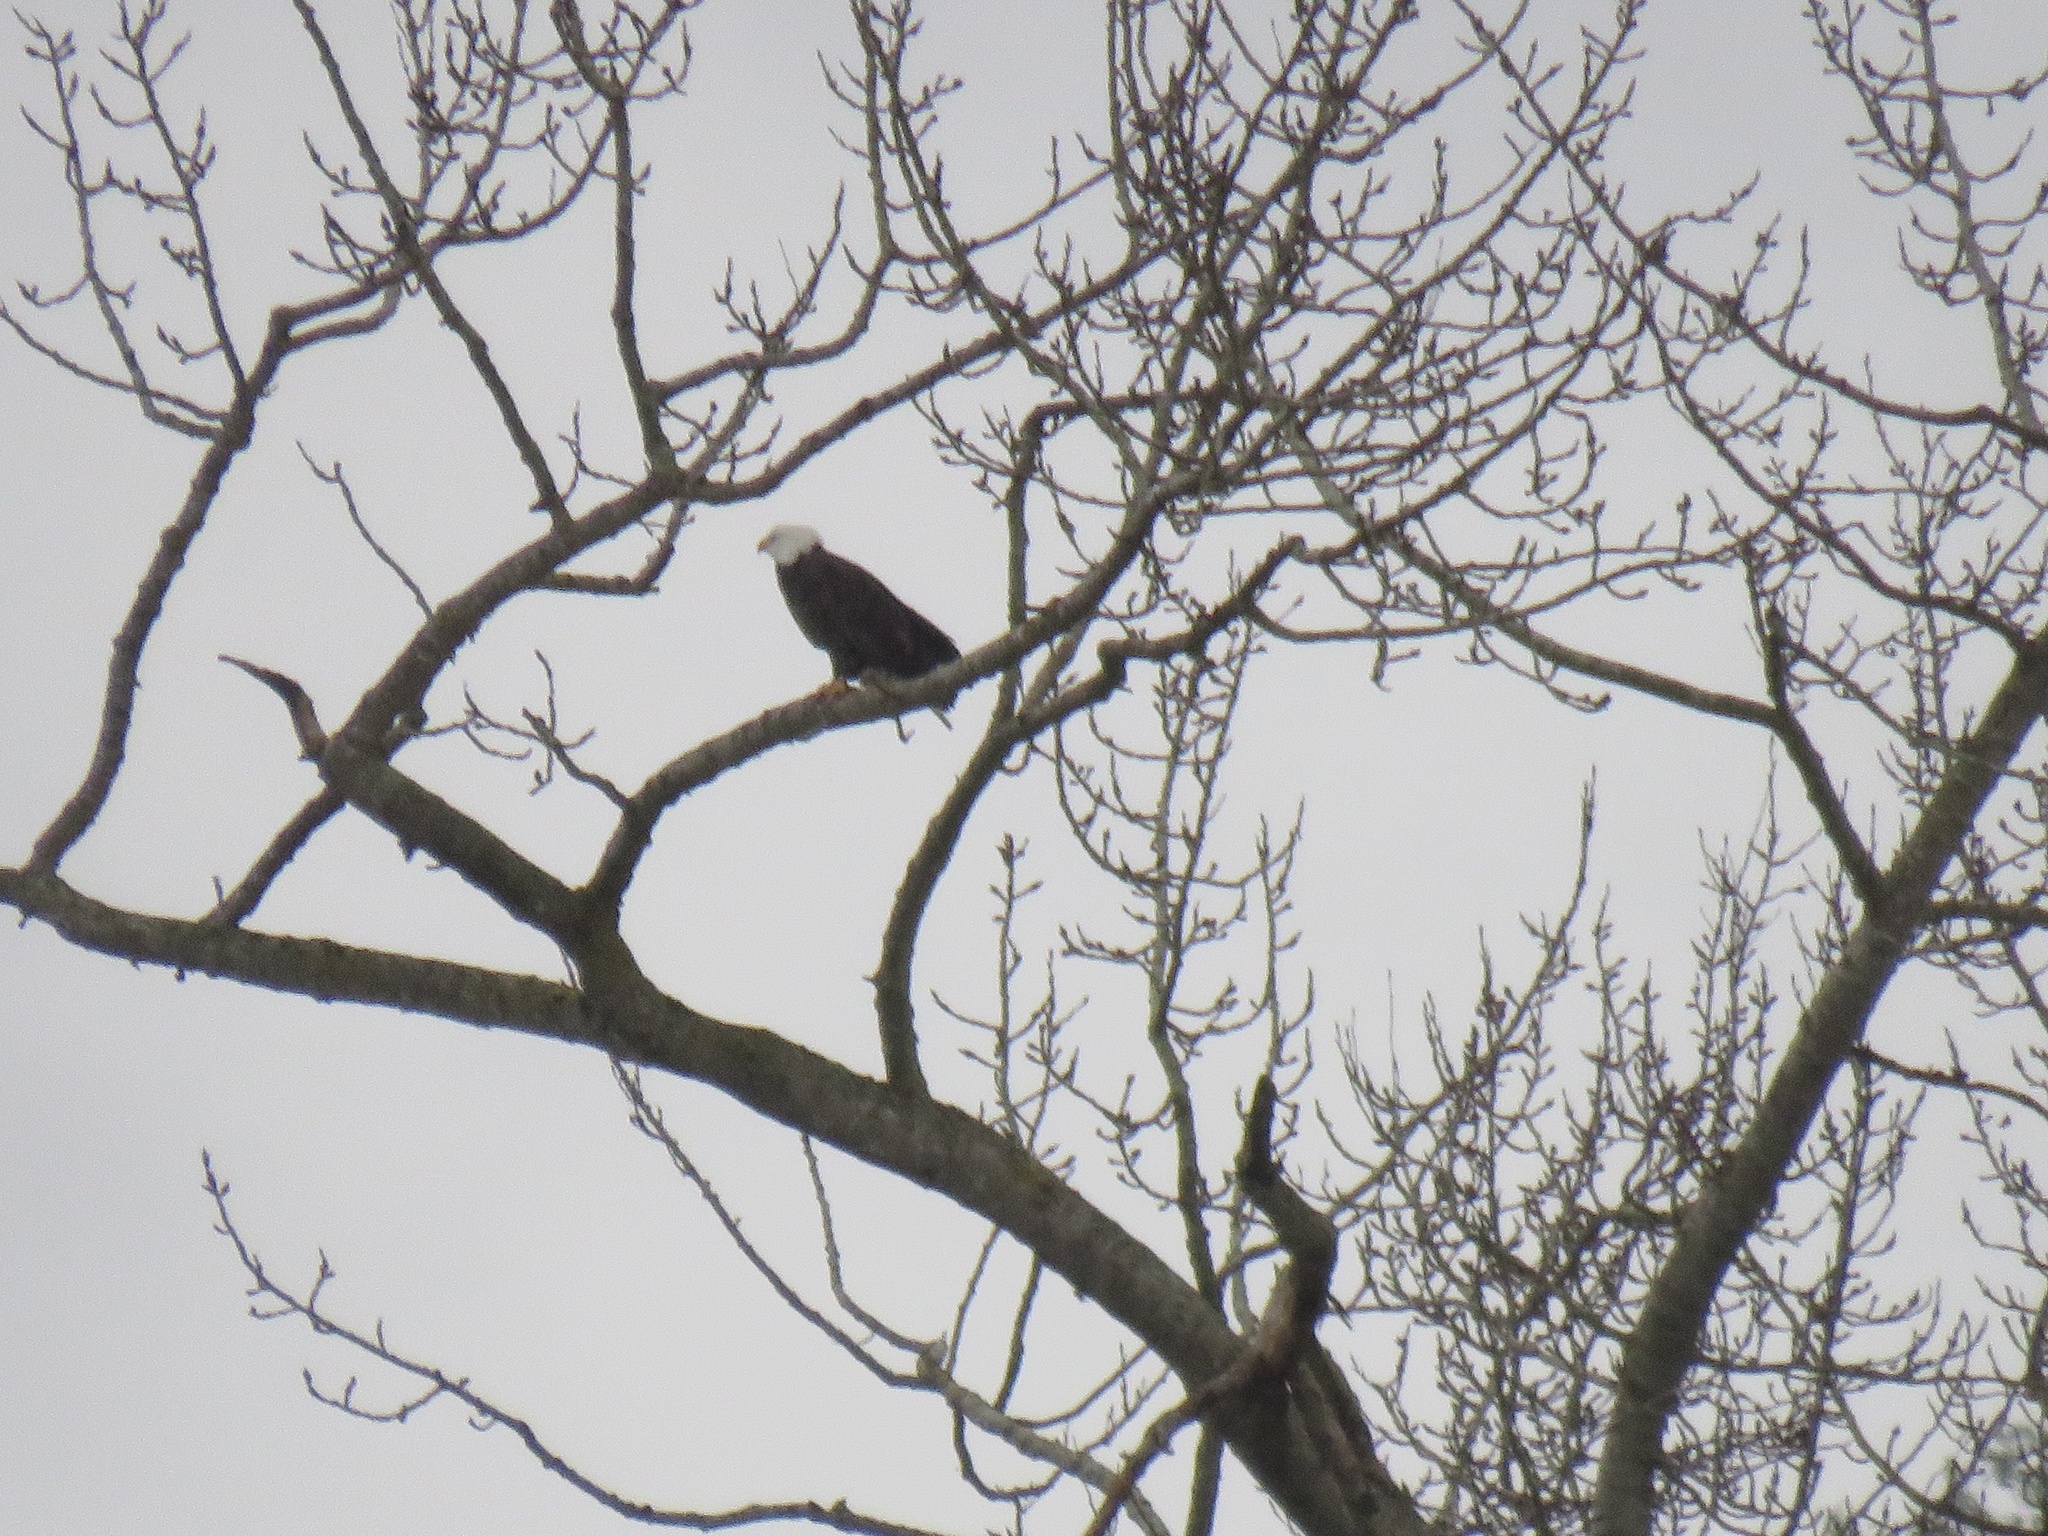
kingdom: Animalia
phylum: Chordata
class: Aves
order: Accipitriformes
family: Accipitridae
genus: Haliaeetus
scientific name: Haliaeetus leucocephalus
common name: Bald eagle
